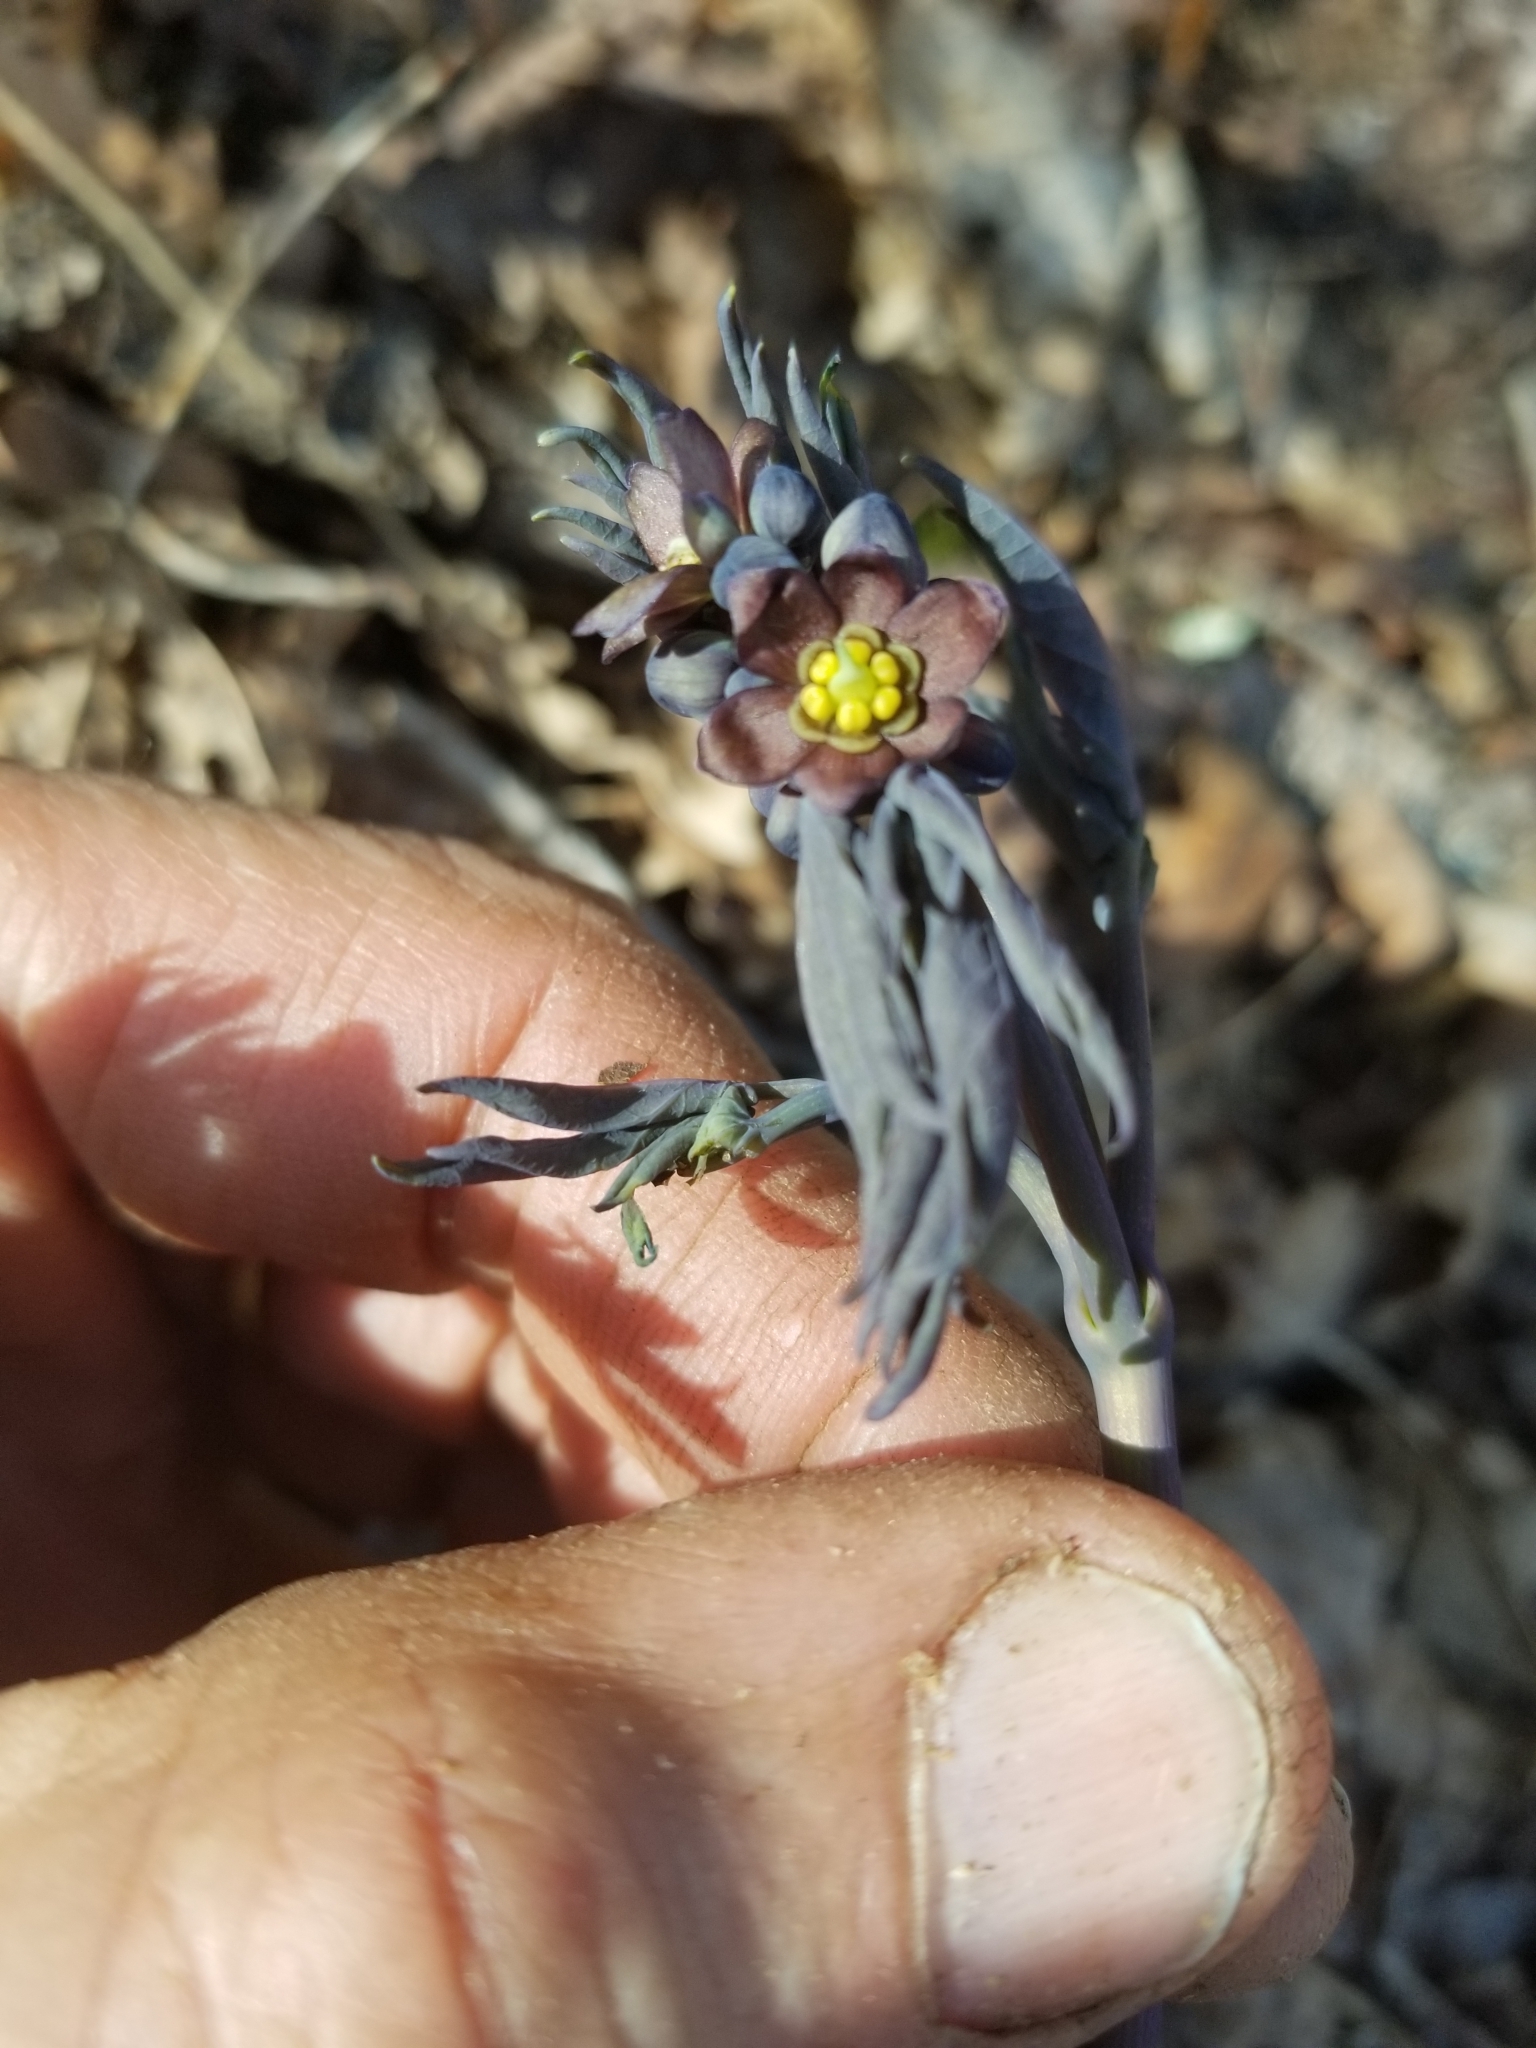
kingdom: Plantae
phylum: Tracheophyta
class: Magnoliopsida
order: Ranunculales
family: Berberidaceae
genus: Caulophyllum
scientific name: Caulophyllum giganteum
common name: Blue cohosh
